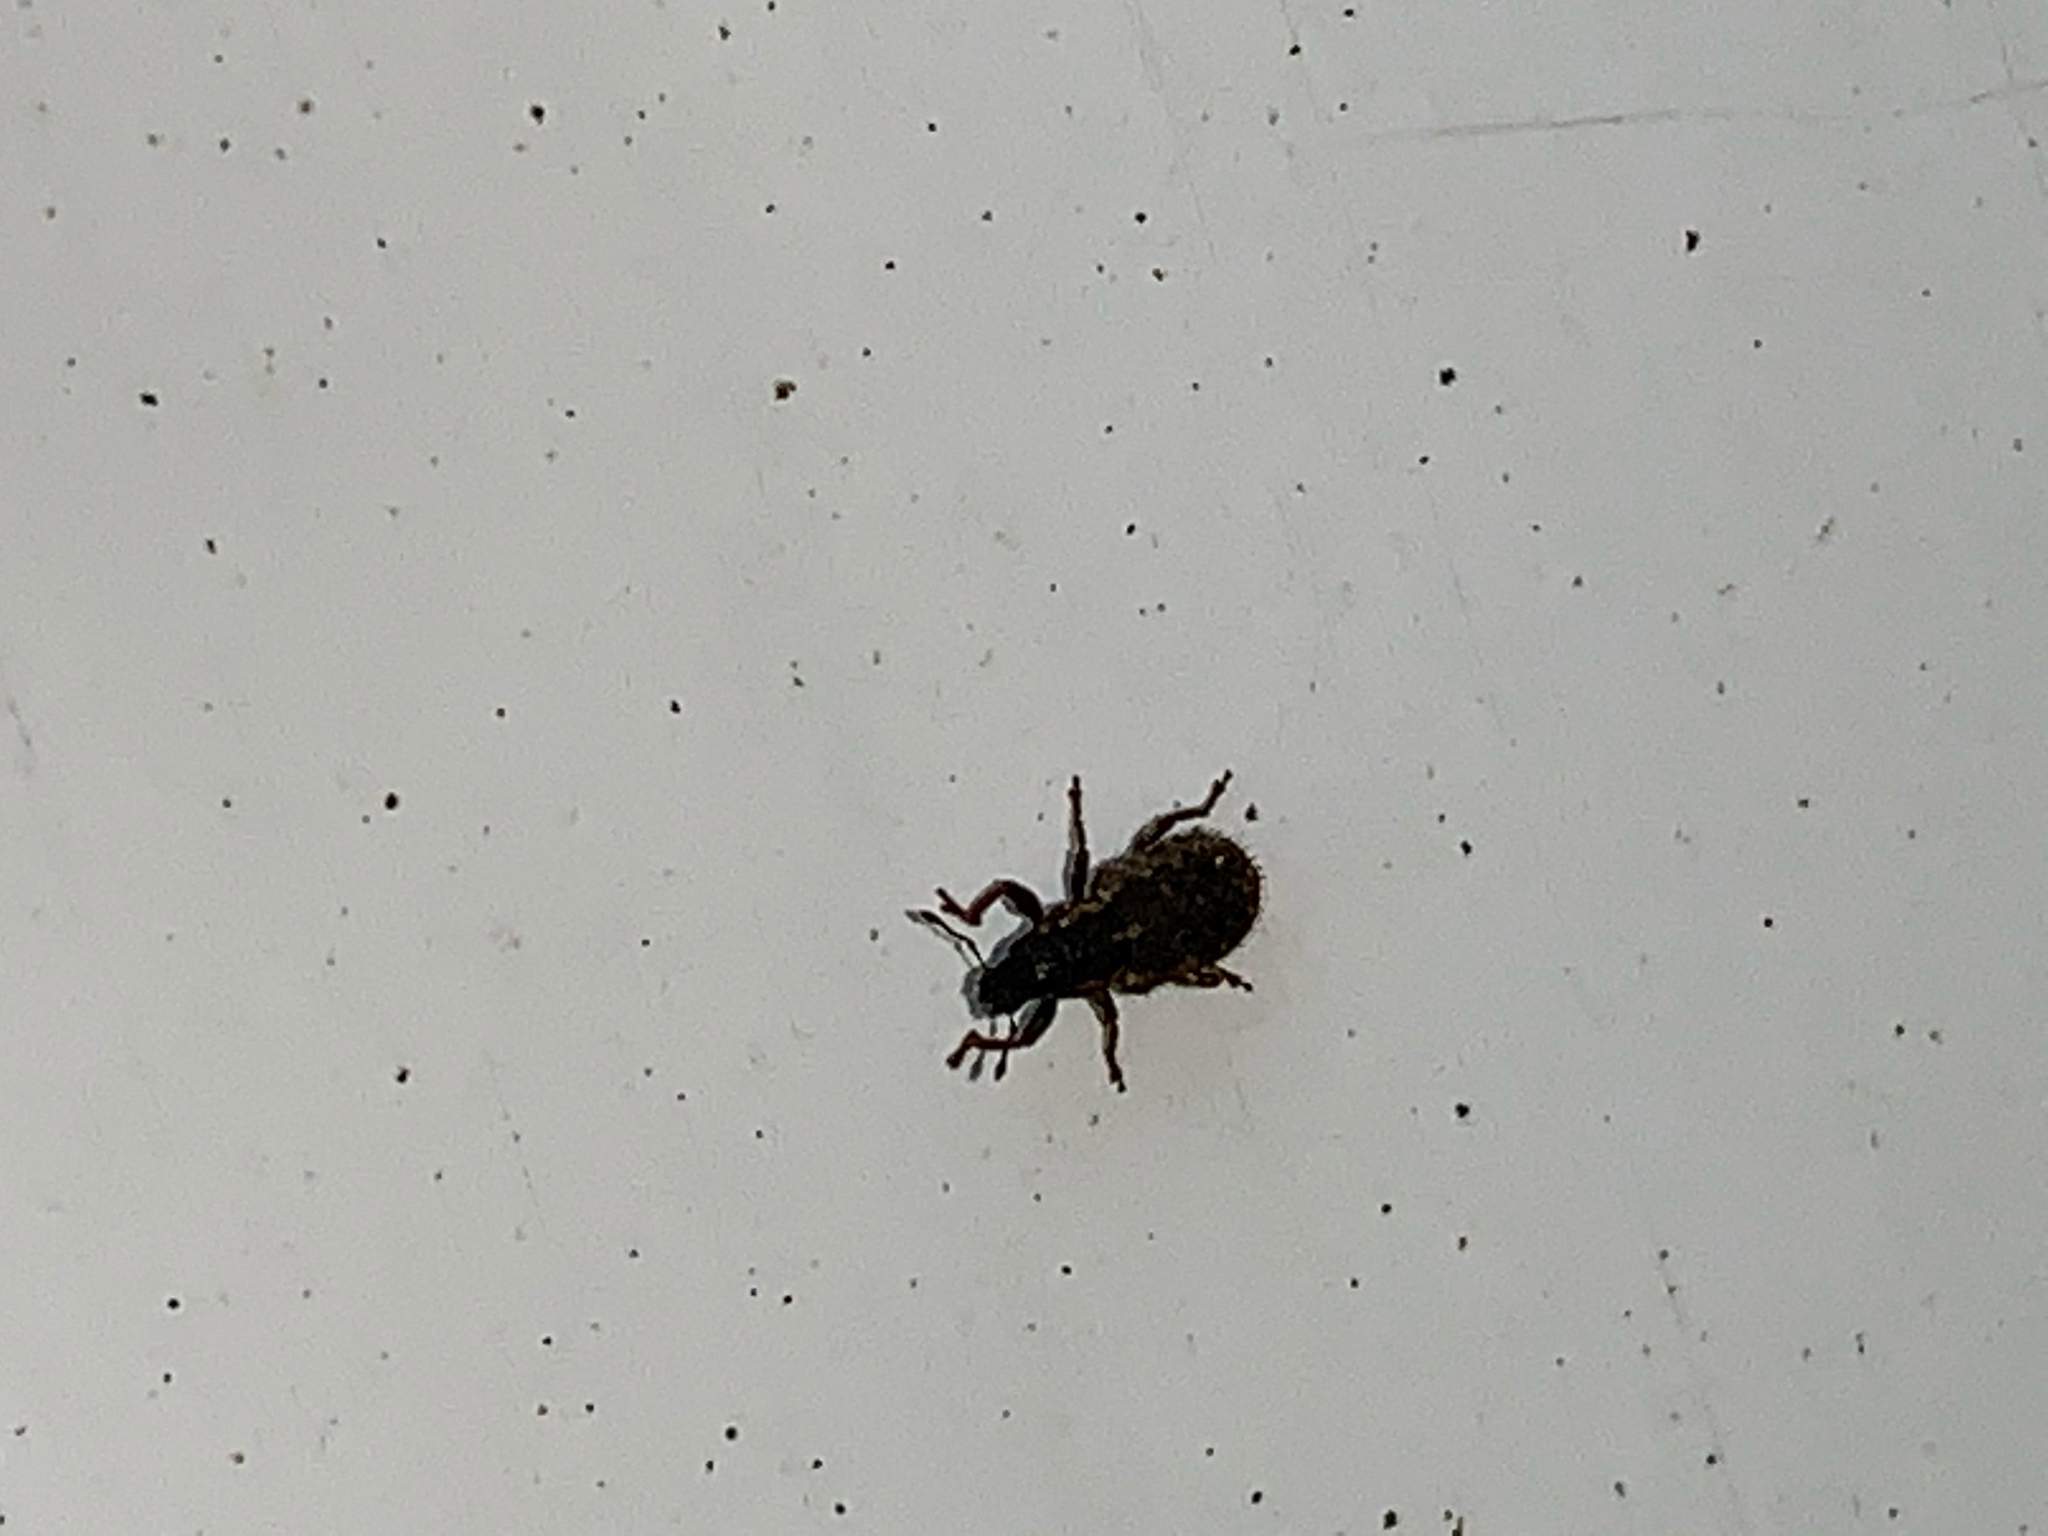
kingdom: Animalia
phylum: Arthropoda
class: Insecta
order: Coleoptera
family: Curculionidae
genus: Sitona
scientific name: Sitona hispidulus
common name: Clover weevil
